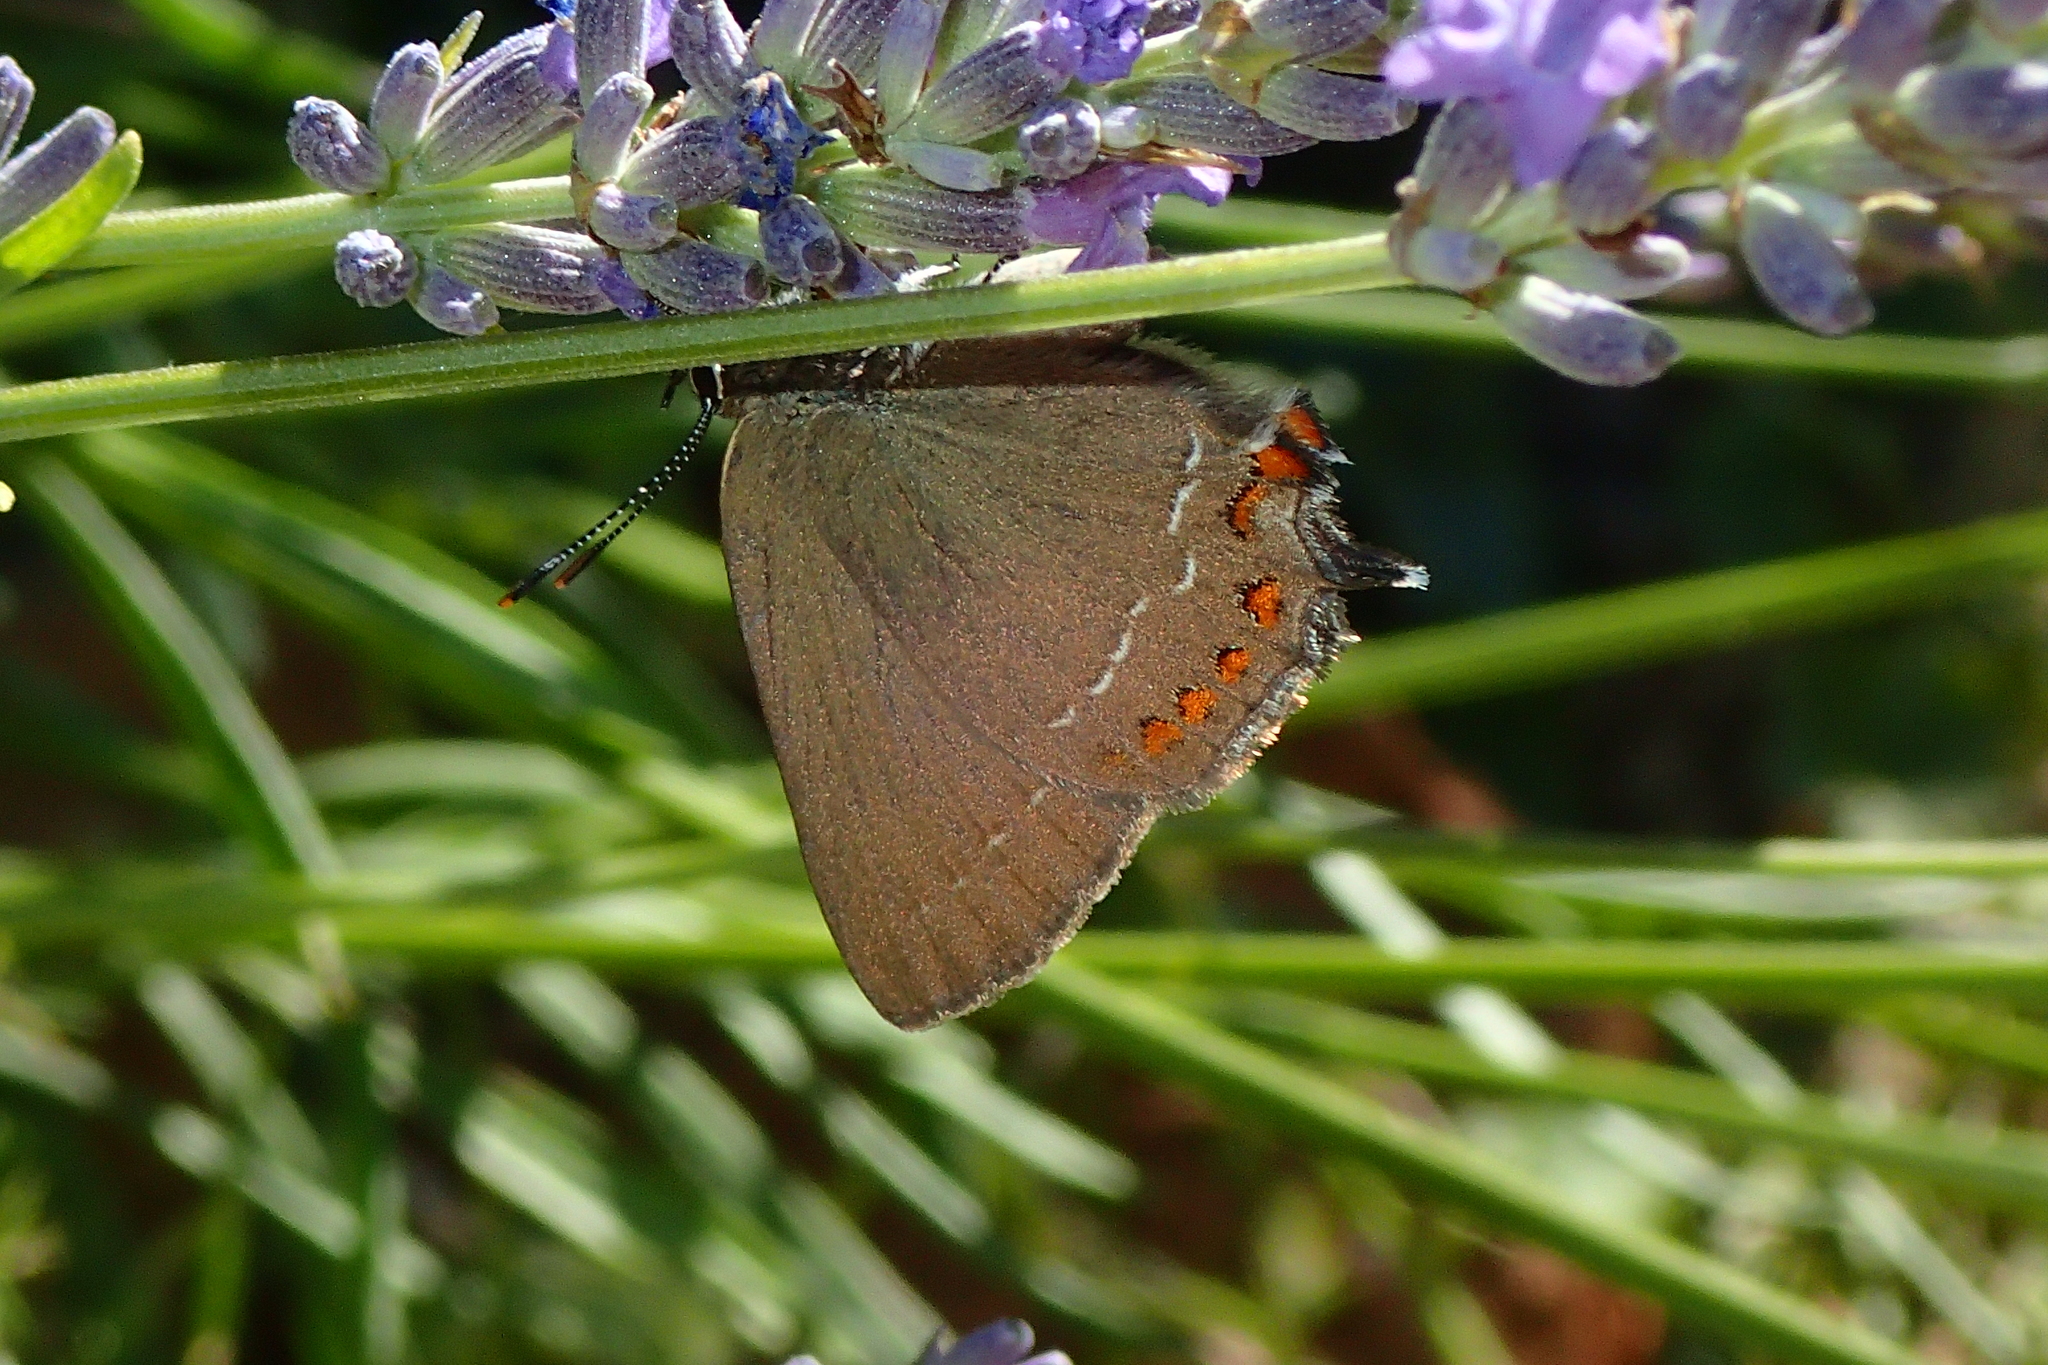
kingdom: Animalia
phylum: Arthropoda
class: Insecta
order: Lepidoptera
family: Lycaenidae
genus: Fixsenia
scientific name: Fixsenia esculi
